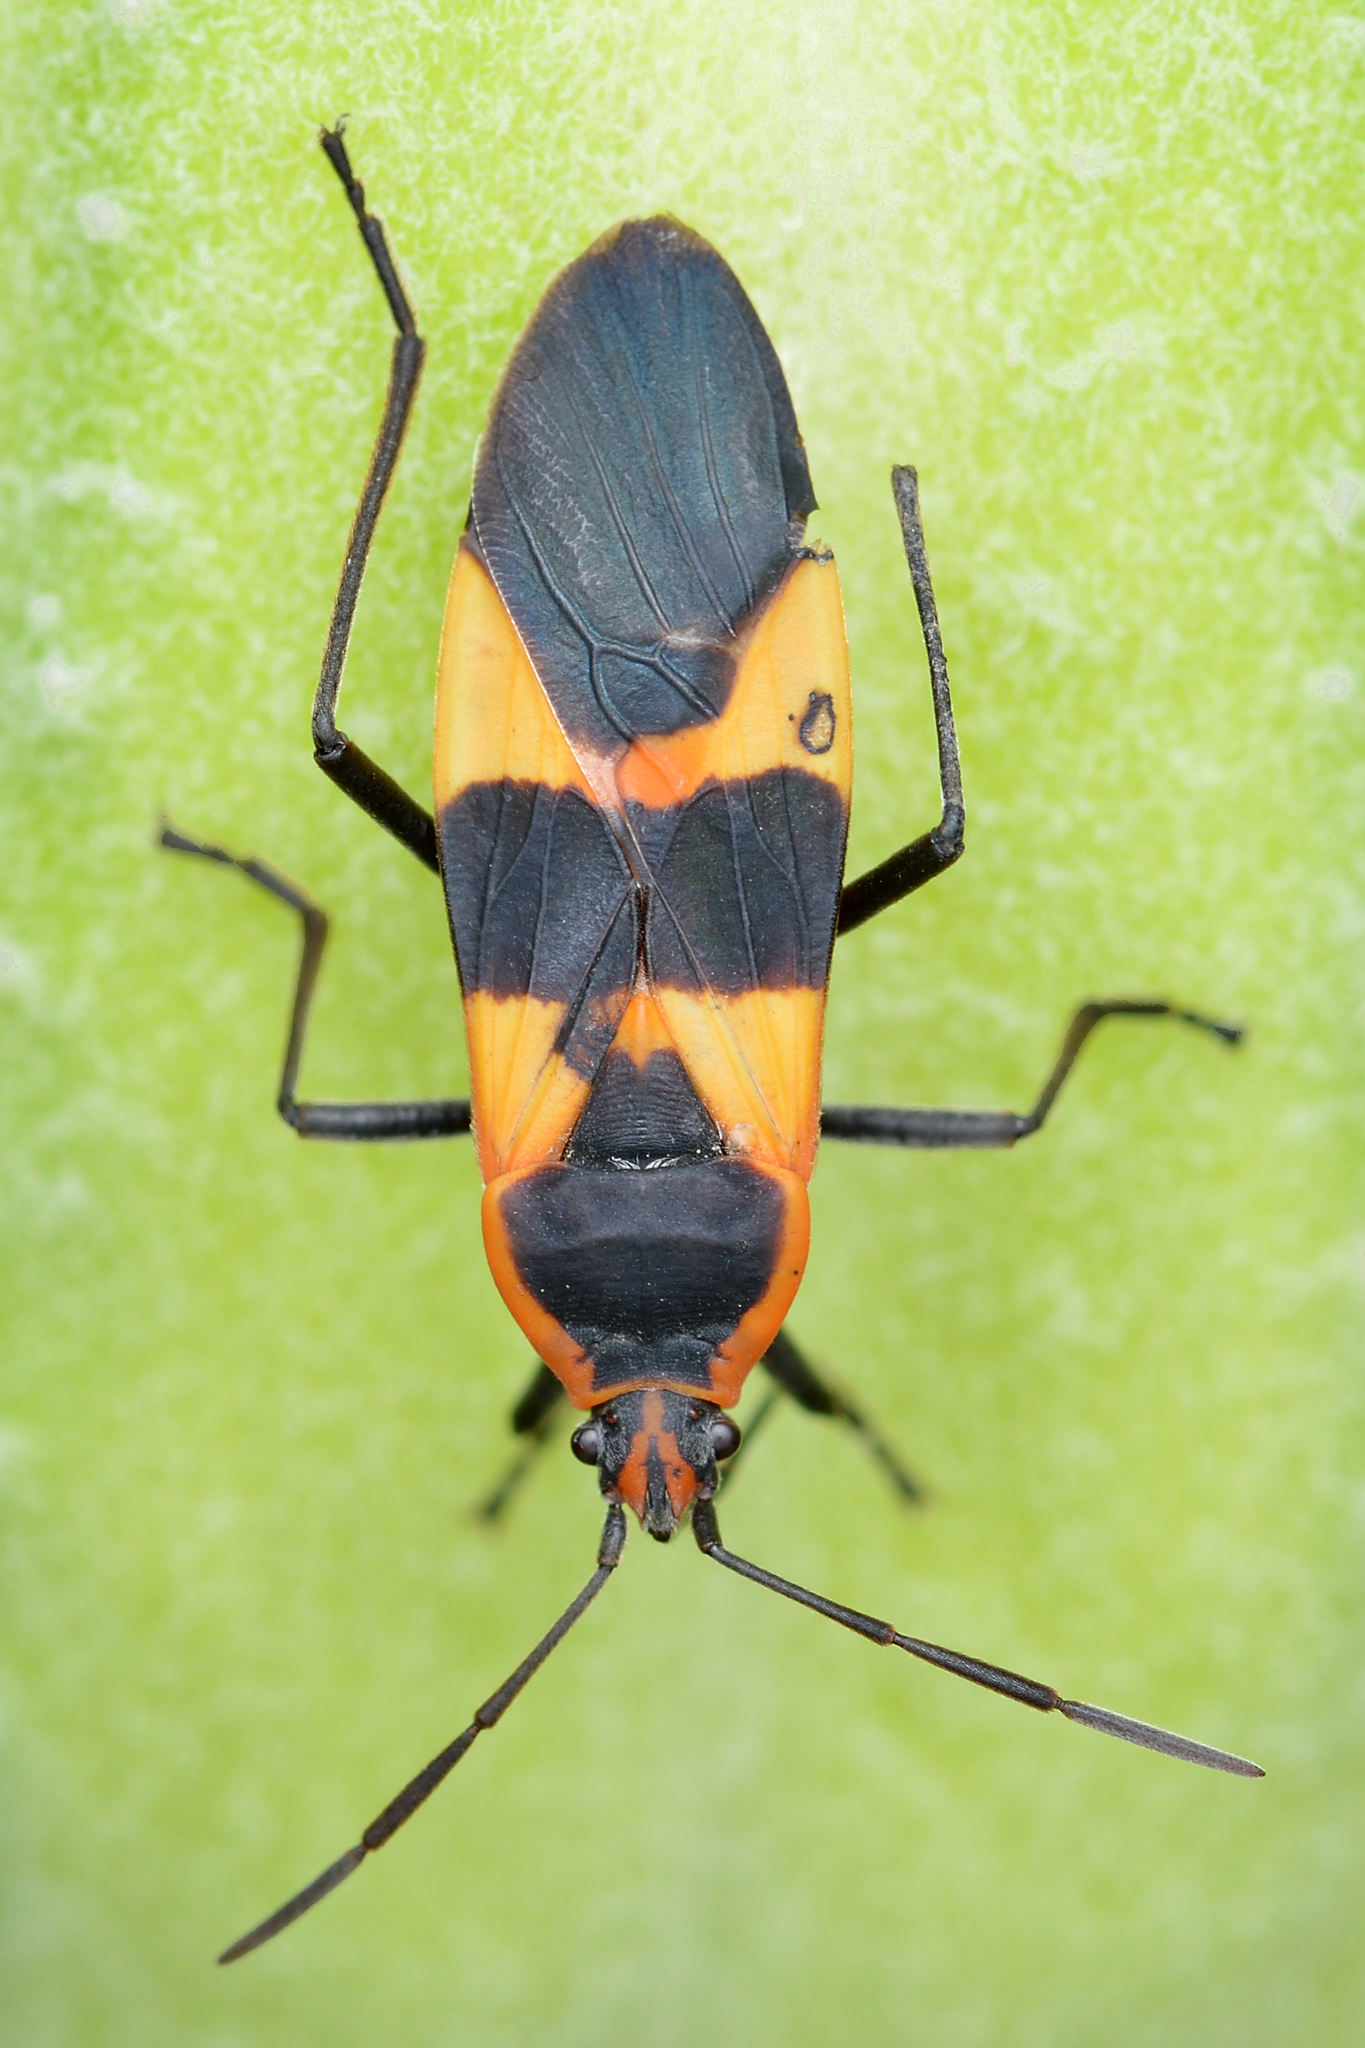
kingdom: Animalia
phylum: Arthropoda
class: Insecta
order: Hemiptera
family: Lygaeidae
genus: Oncopeltus
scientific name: Oncopeltus fasciatus
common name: Large milkweed bug
